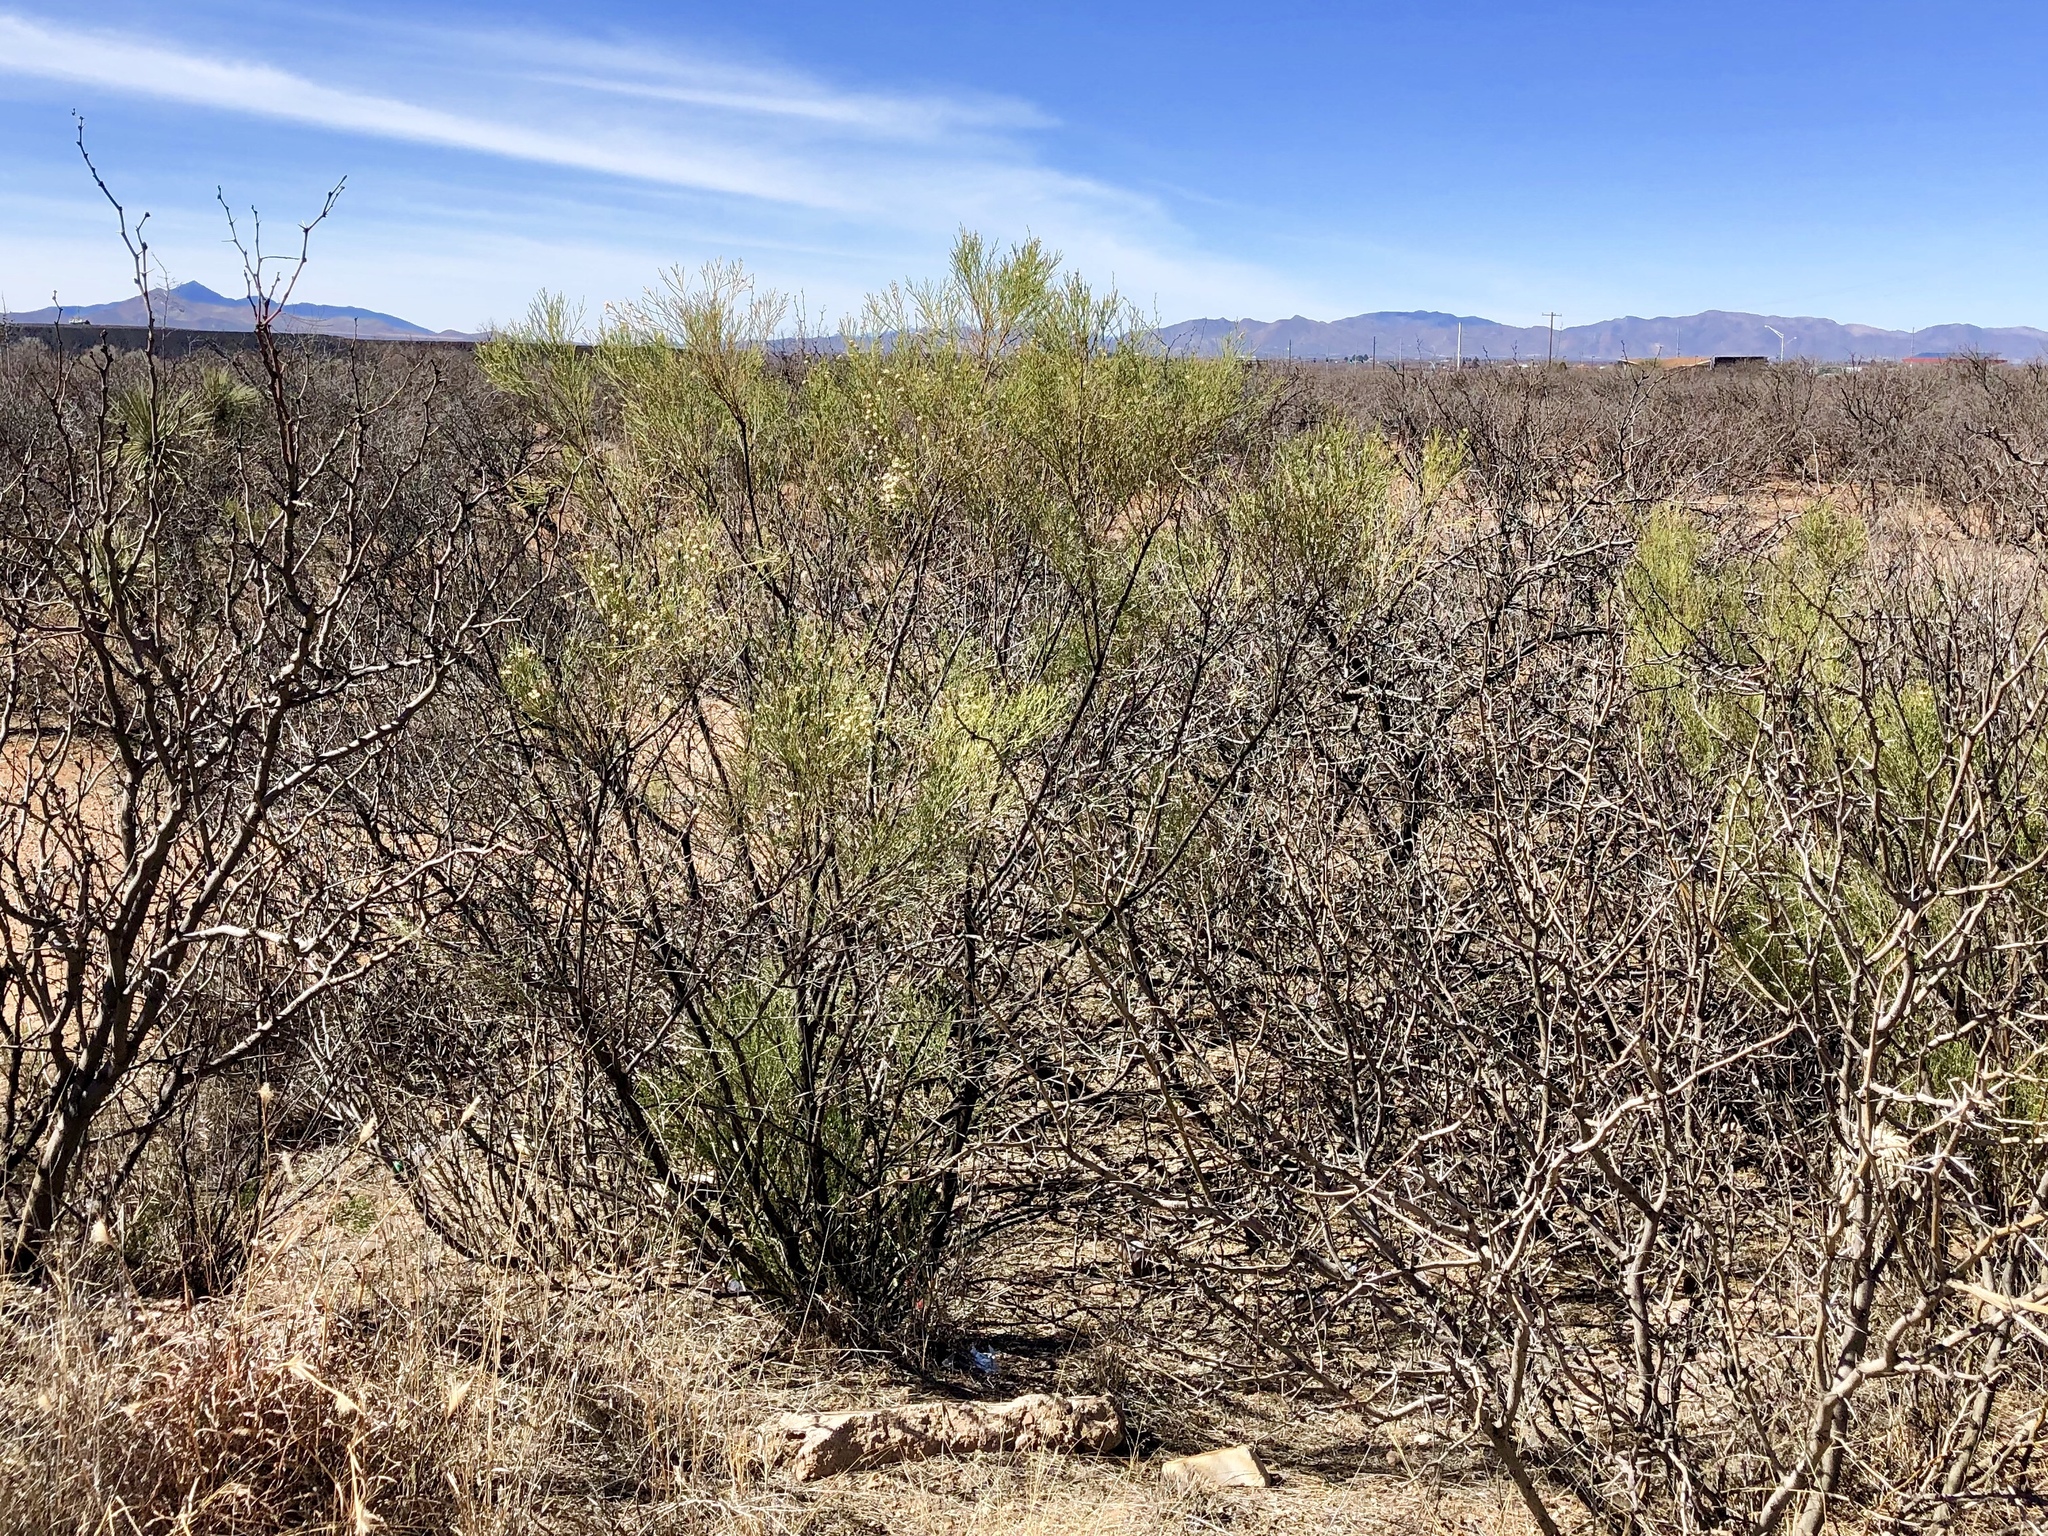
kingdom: Plantae
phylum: Tracheophyta
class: Magnoliopsida
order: Asterales
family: Asteraceae
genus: Baccharis
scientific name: Baccharis sarothroides
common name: Desert-broom
